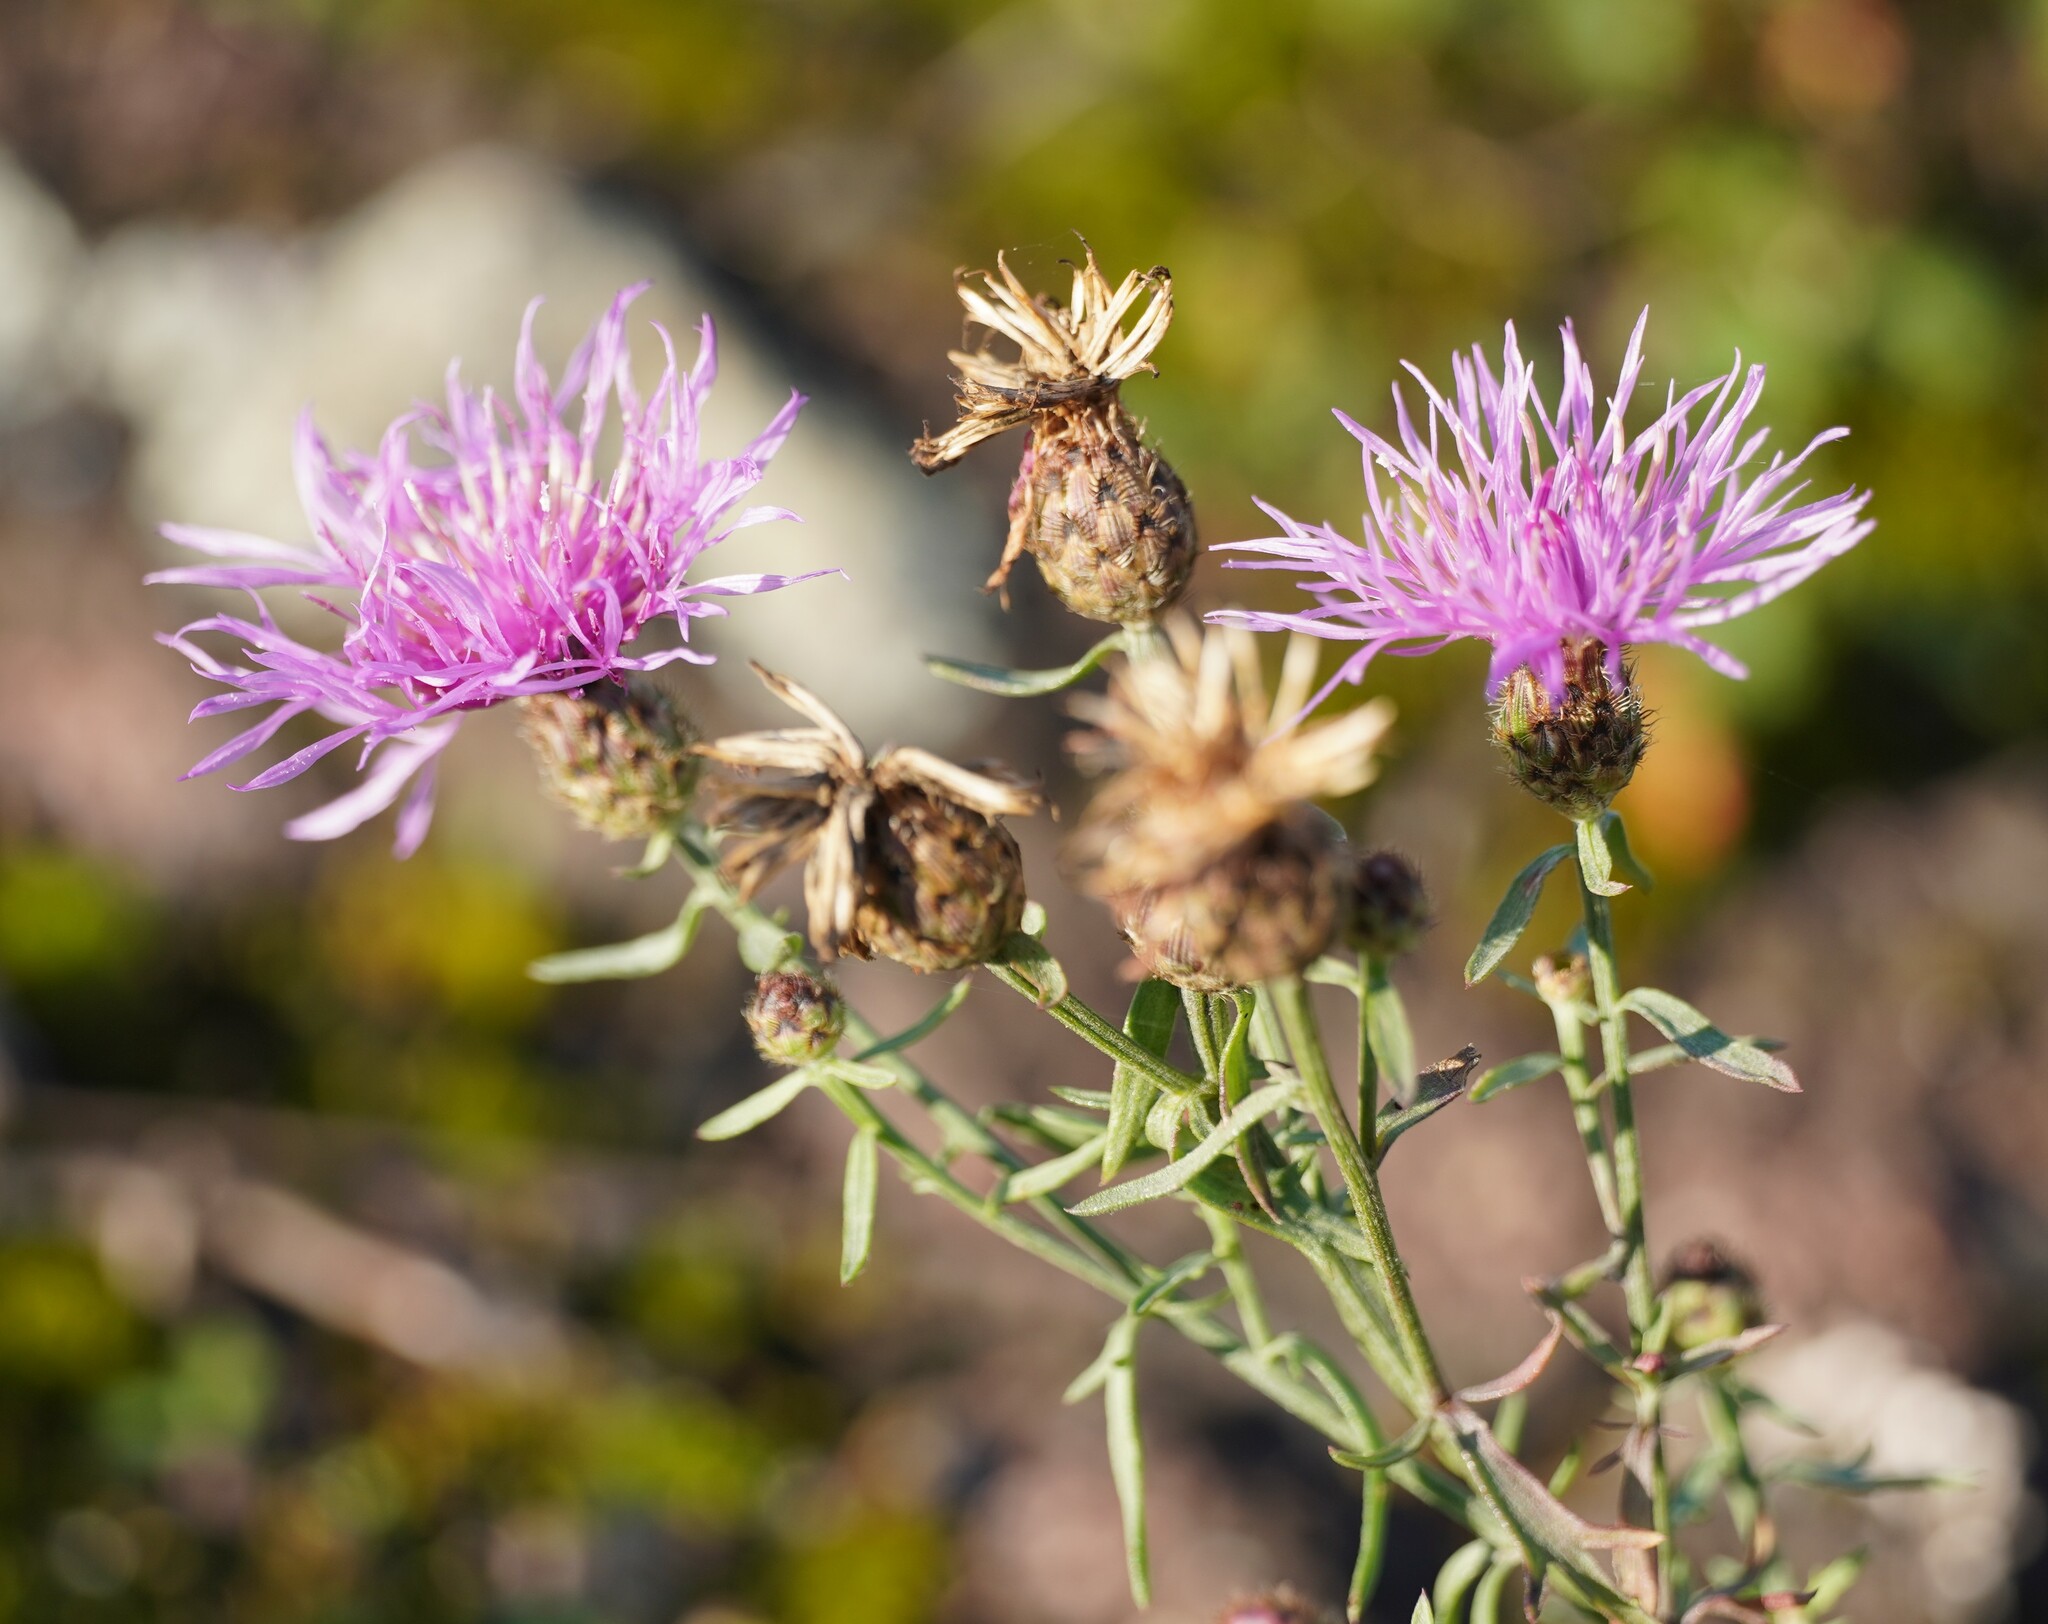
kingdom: Plantae
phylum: Tracheophyta
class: Magnoliopsida
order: Asterales
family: Asteraceae
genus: Centaurea
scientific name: Centaurea stoebe
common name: Spotted knapweed
